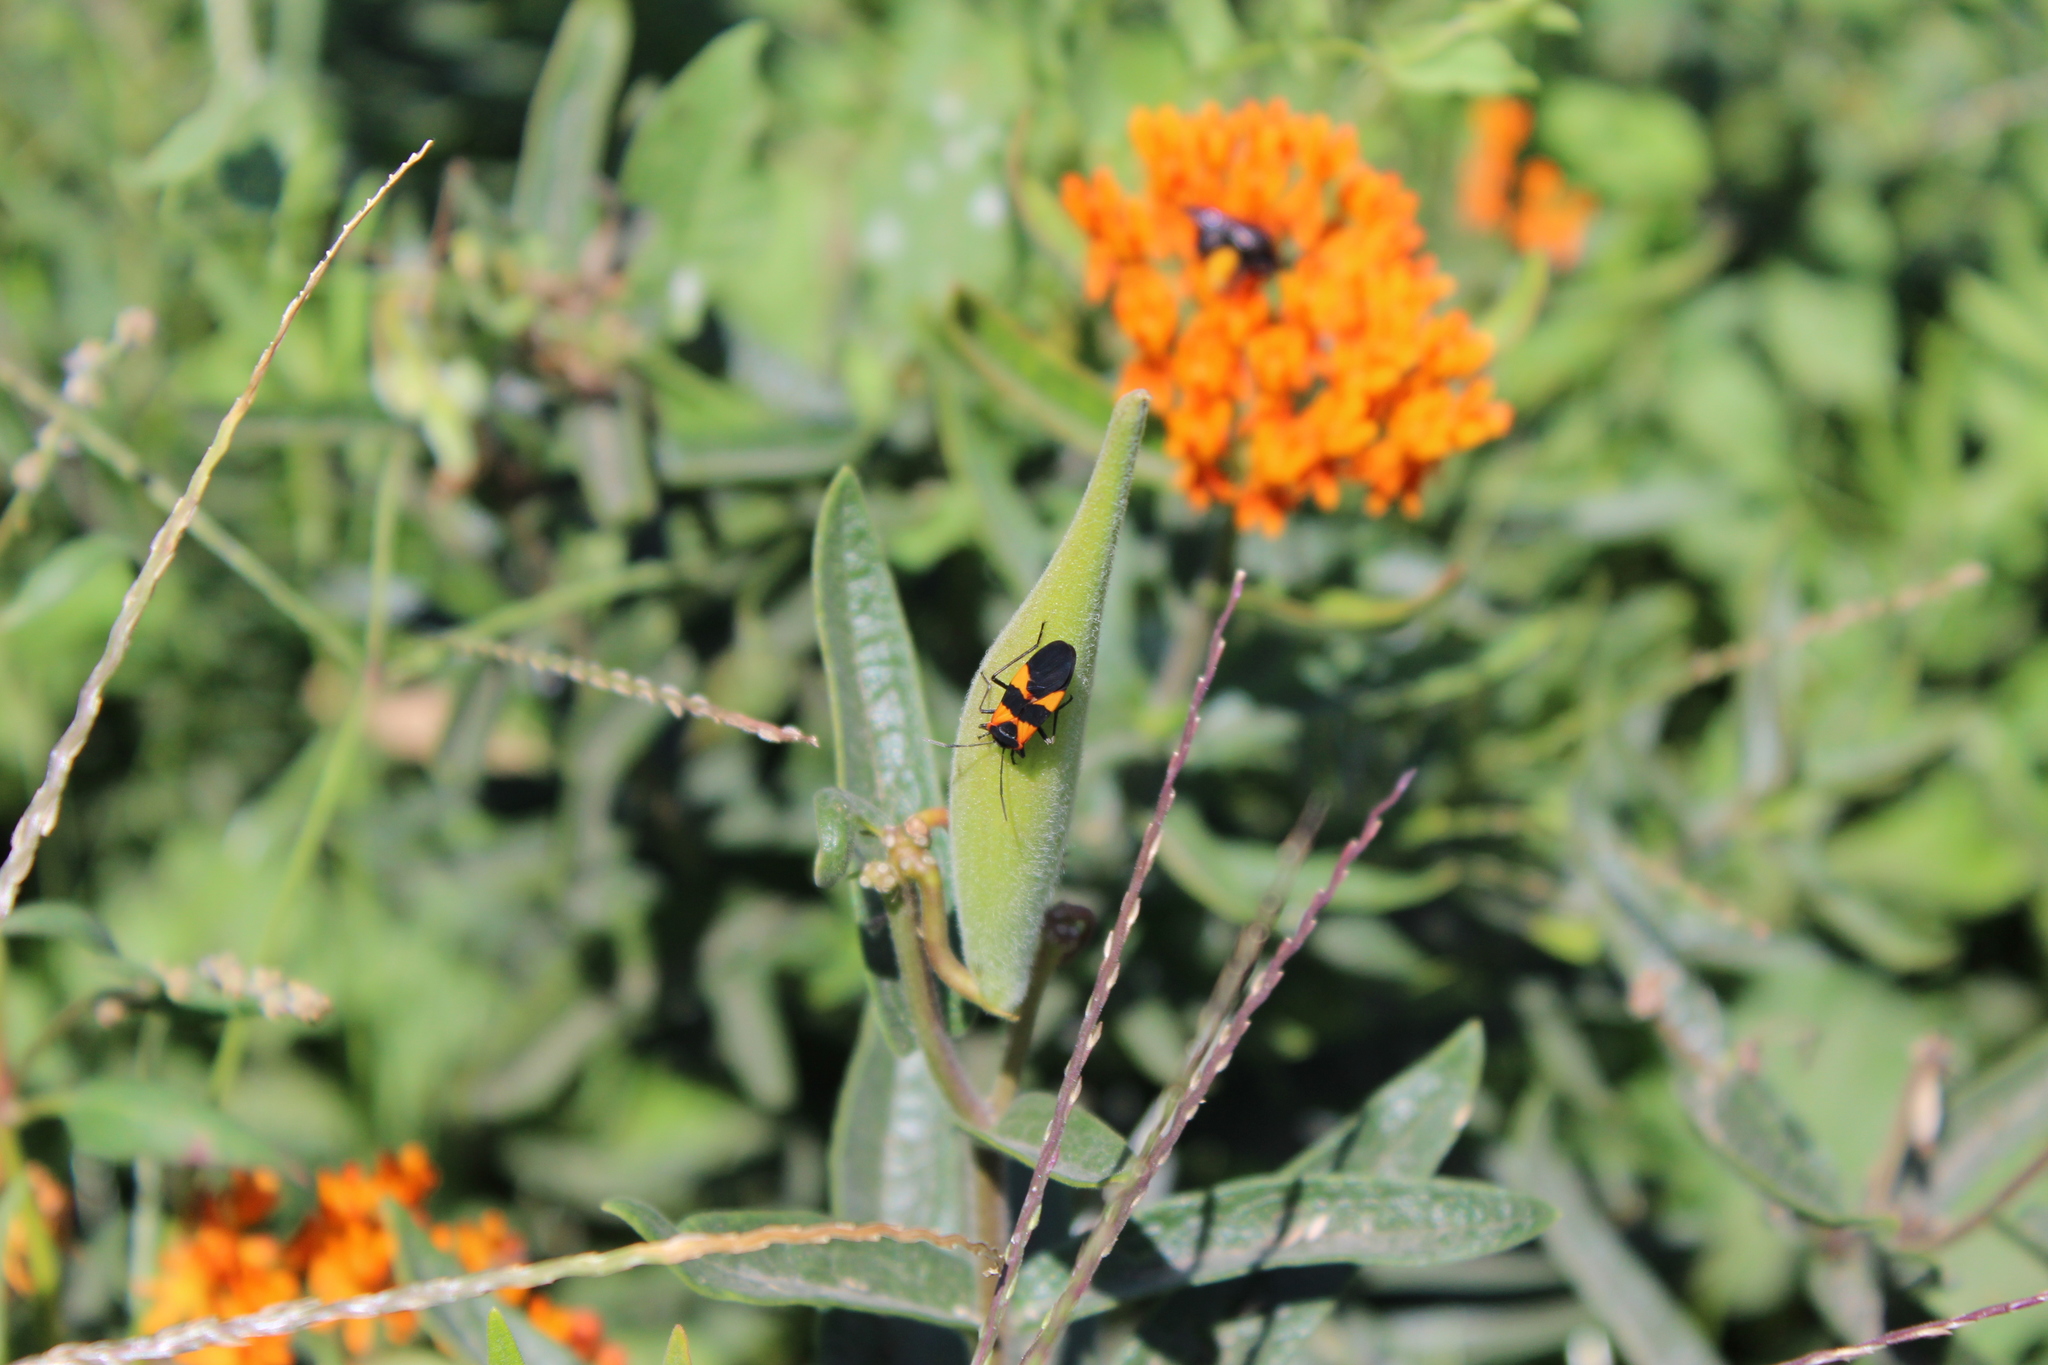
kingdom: Animalia
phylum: Arthropoda
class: Insecta
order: Hemiptera
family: Lygaeidae
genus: Oncopeltus
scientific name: Oncopeltus fasciatus
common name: Large milkweed bug
